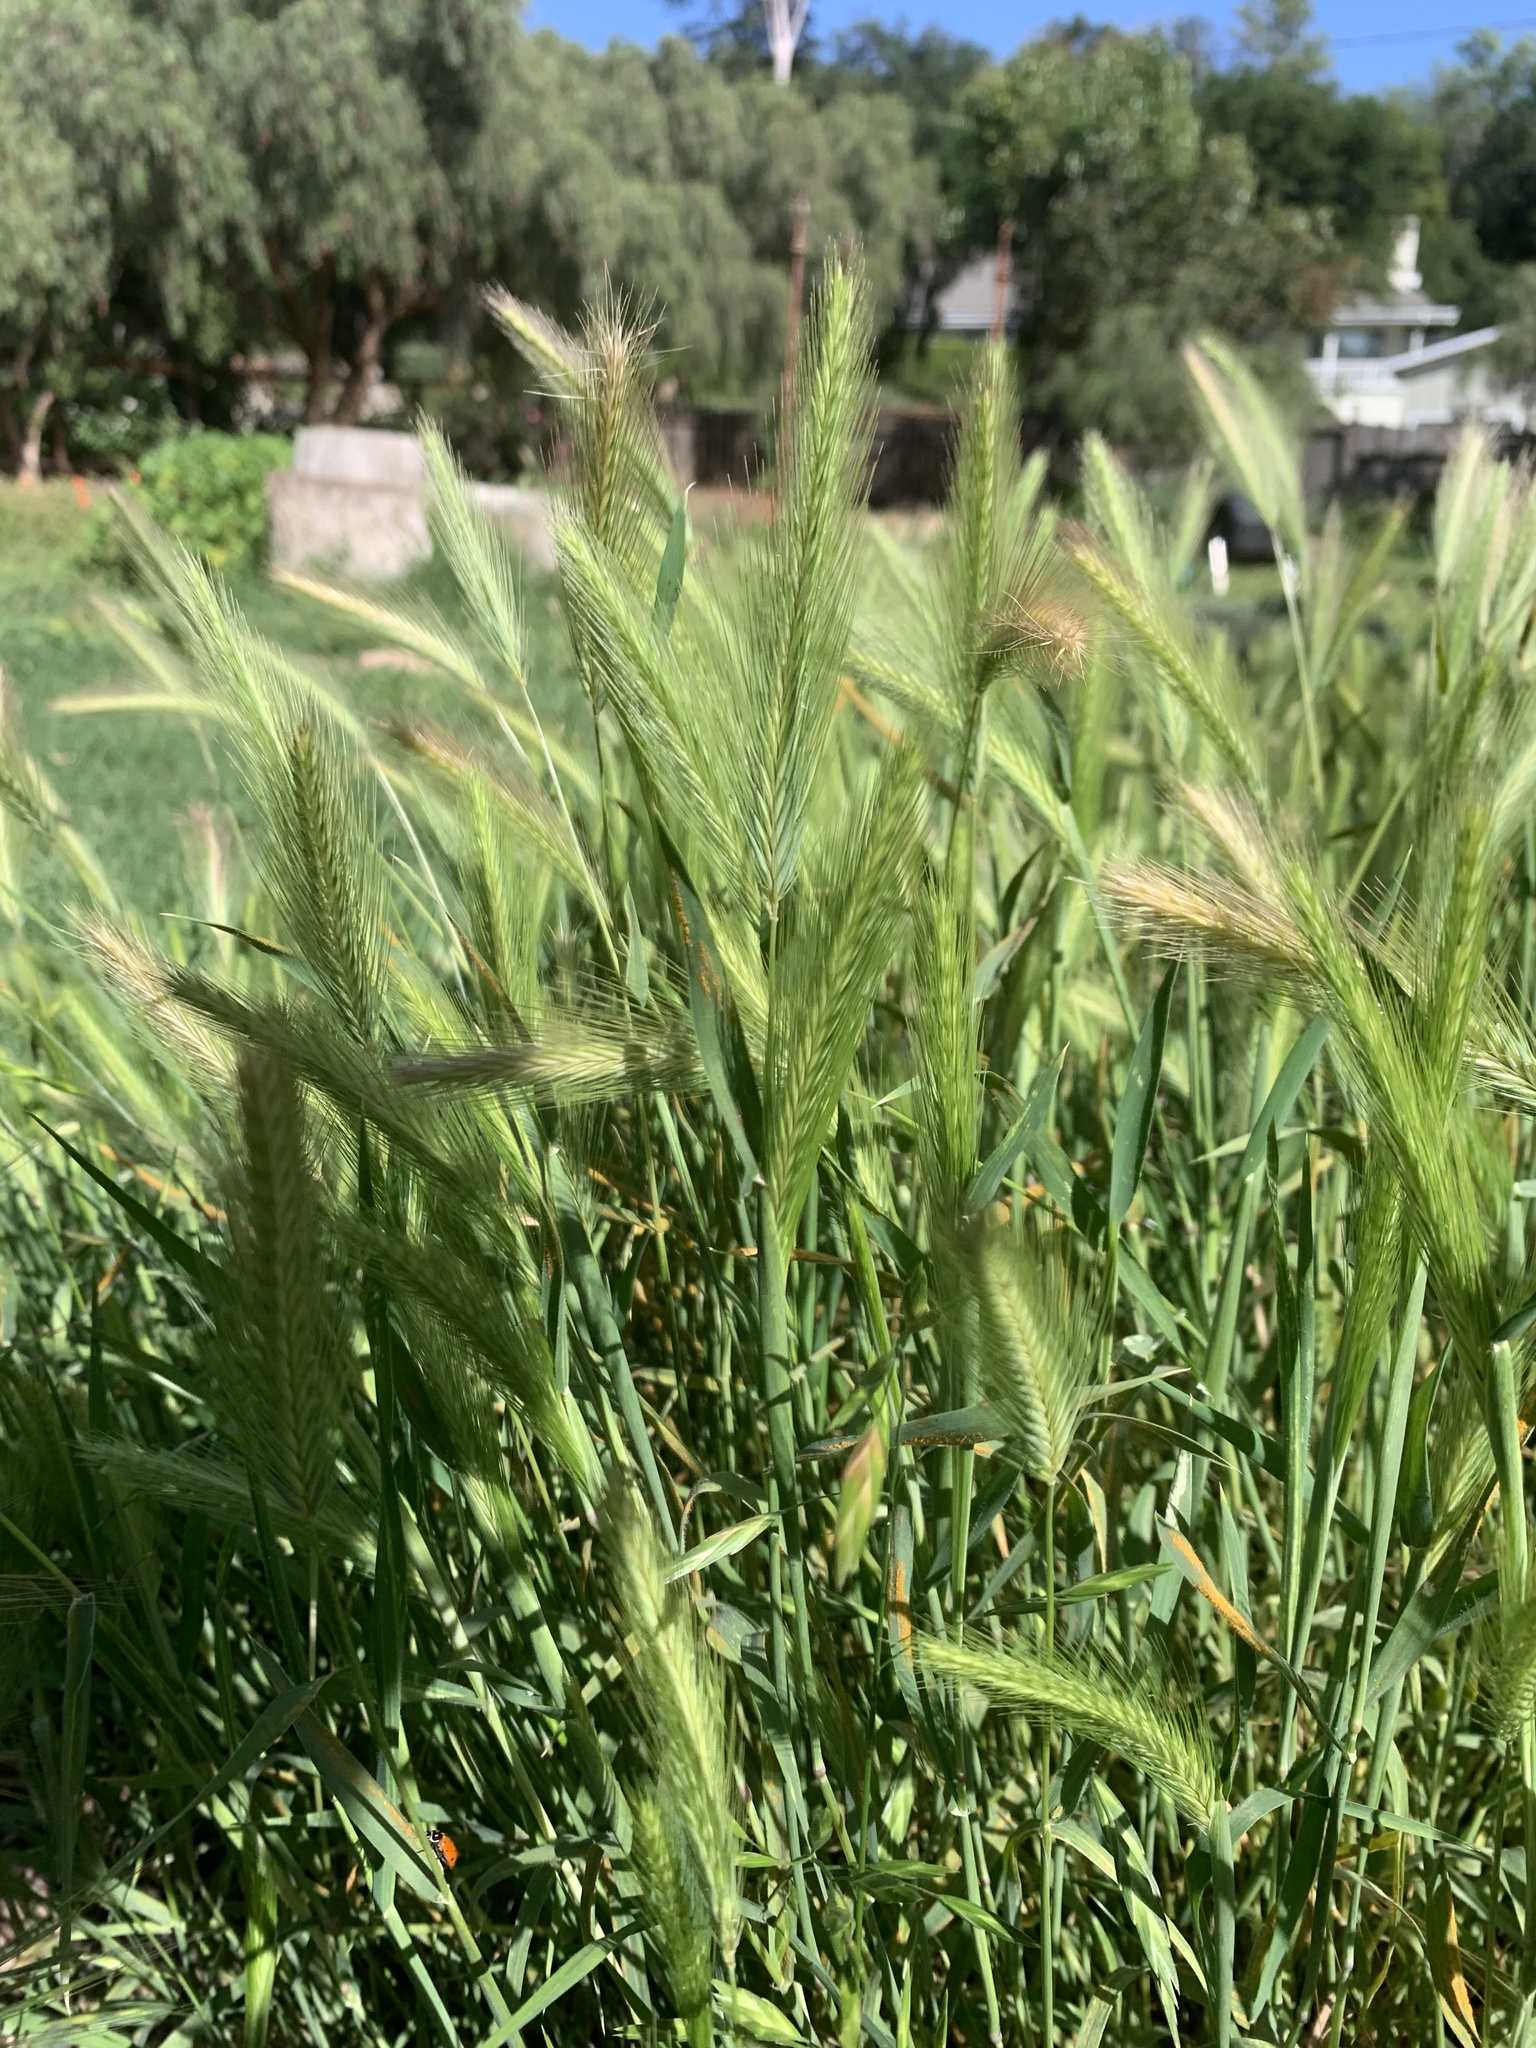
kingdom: Plantae
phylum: Tracheophyta
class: Liliopsida
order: Poales
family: Poaceae
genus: Hordeum
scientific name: Hordeum murinum
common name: Wall barley
